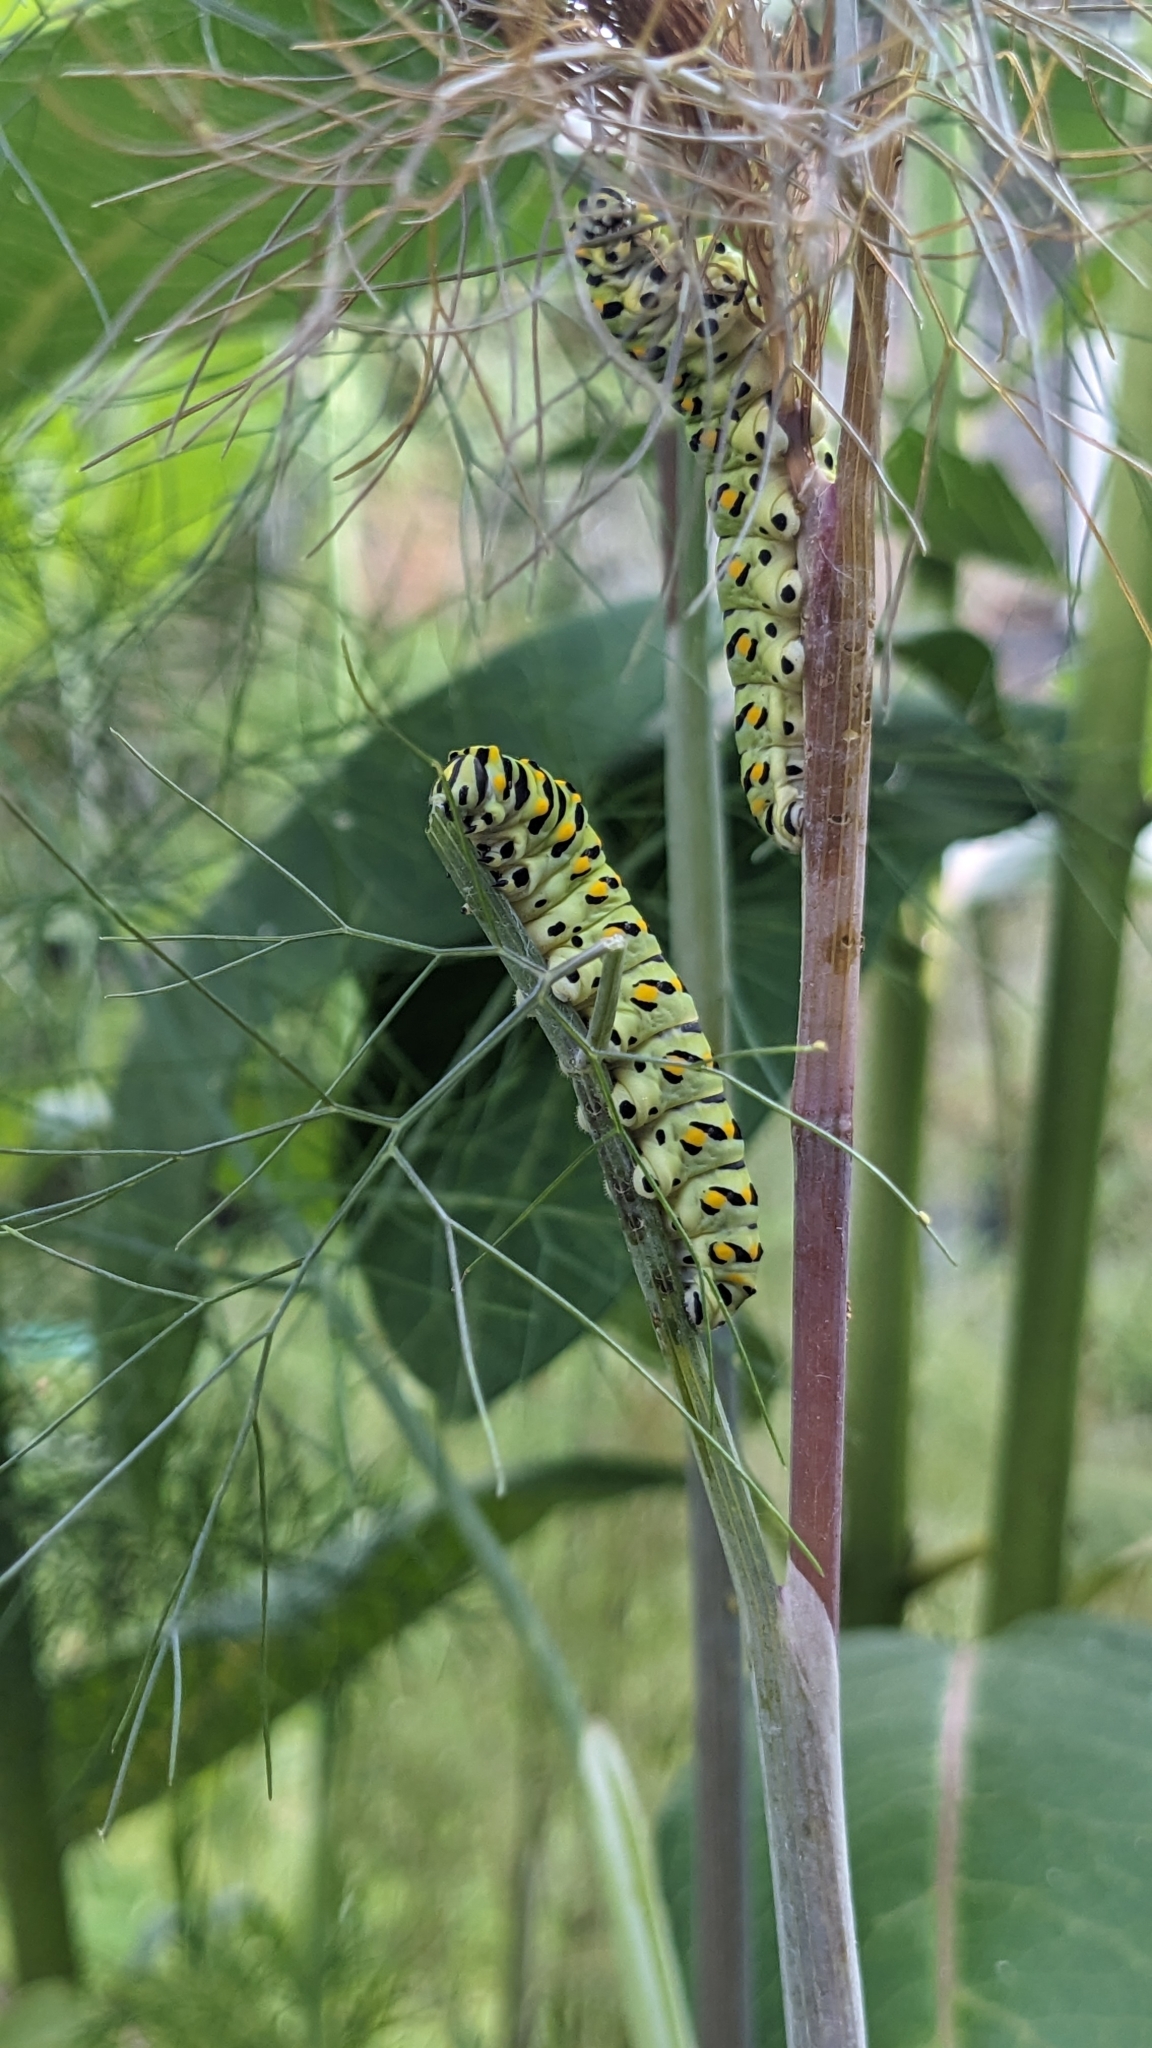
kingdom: Animalia
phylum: Arthropoda
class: Insecta
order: Lepidoptera
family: Papilionidae
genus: Papilio
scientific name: Papilio polyxenes
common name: Black swallowtail
